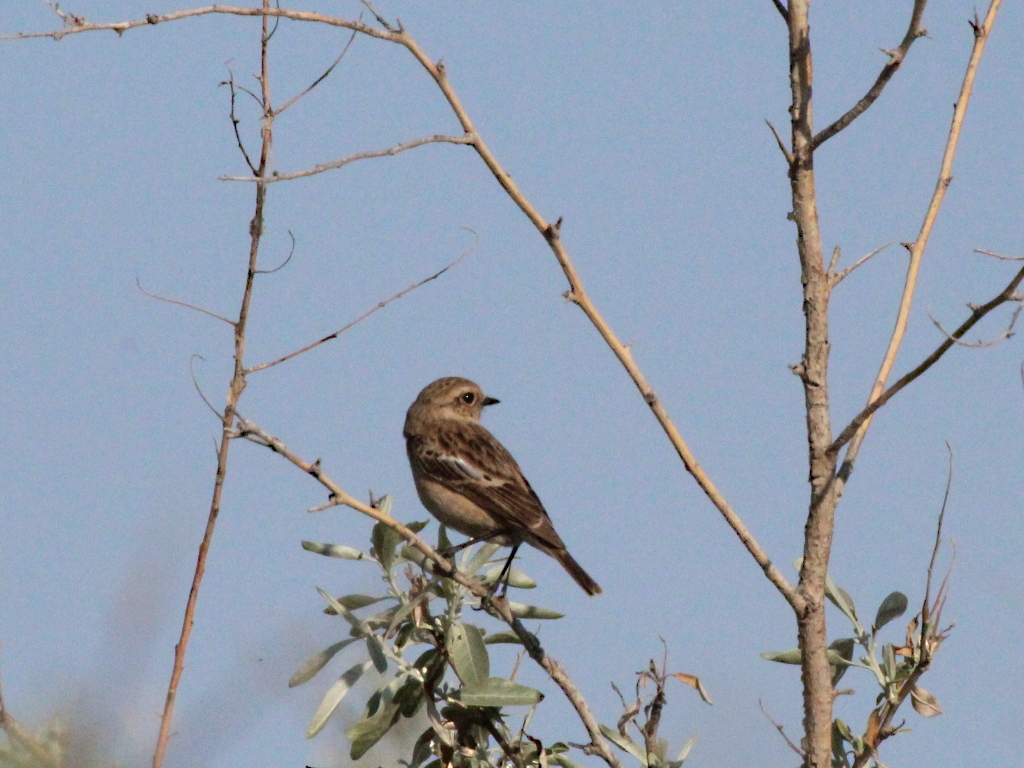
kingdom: Animalia
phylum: Chordata
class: Aves
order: Passeriformes
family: Muscicapidae
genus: Saxicola
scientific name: Saxicola maurus
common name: Siberian stonechat
